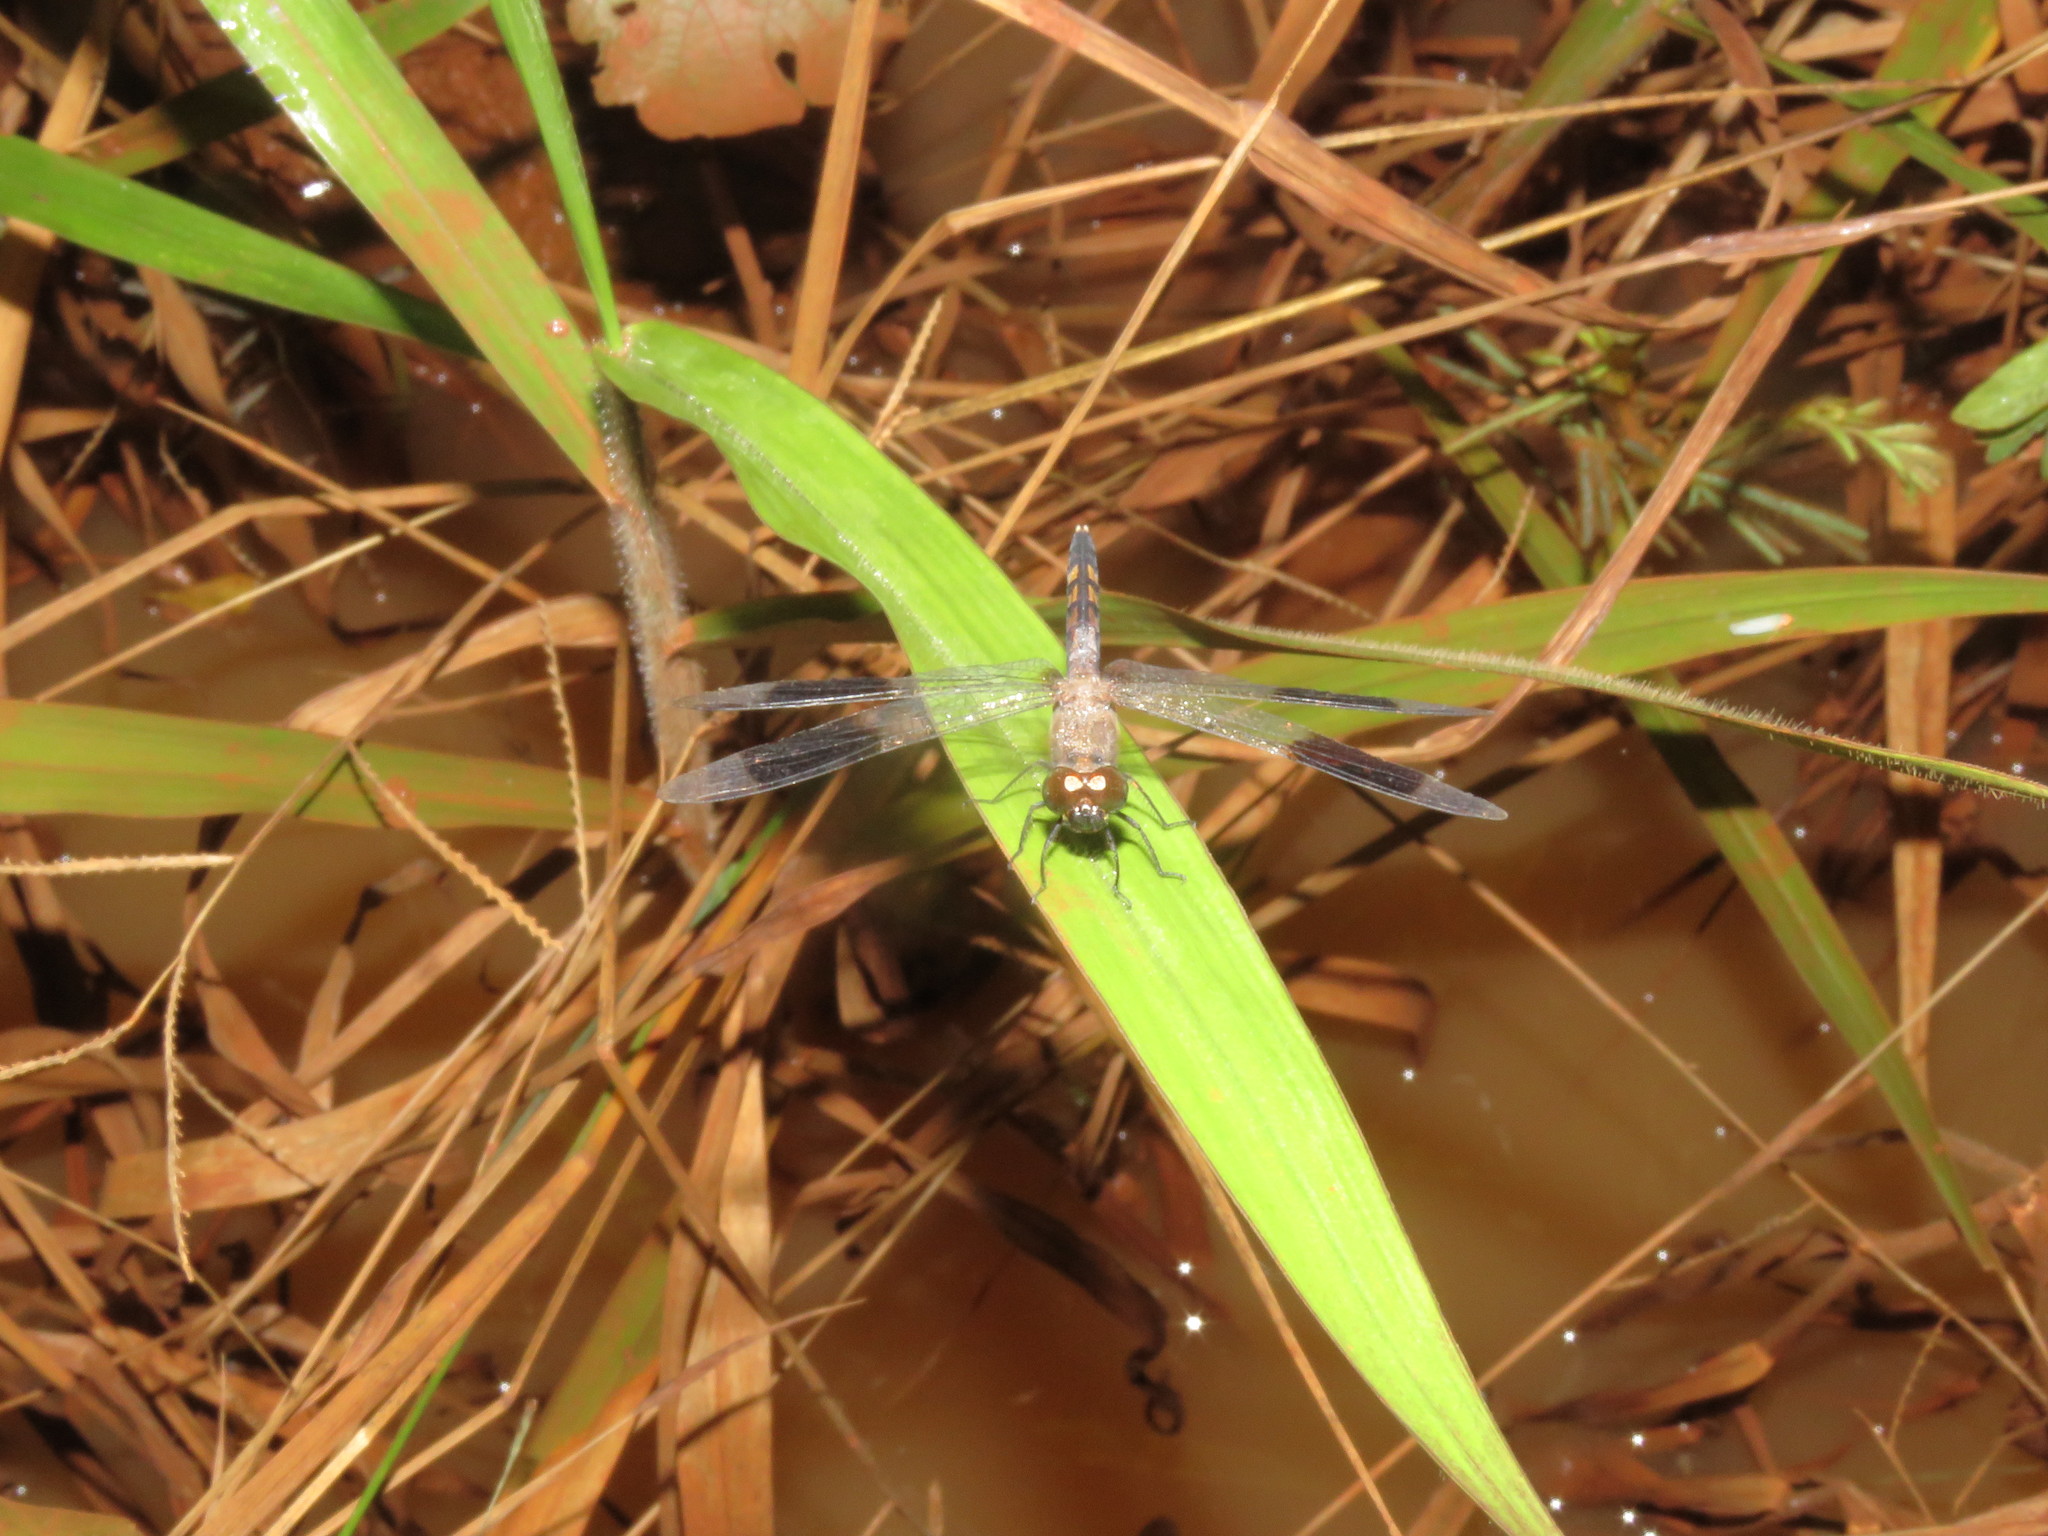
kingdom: Animalia
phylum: Arthropoda
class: Insecta
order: Odonata
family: Libellulidae
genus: Erythrodiplax
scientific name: Erythrodiplax umbrata
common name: Band-winged dragonlet
